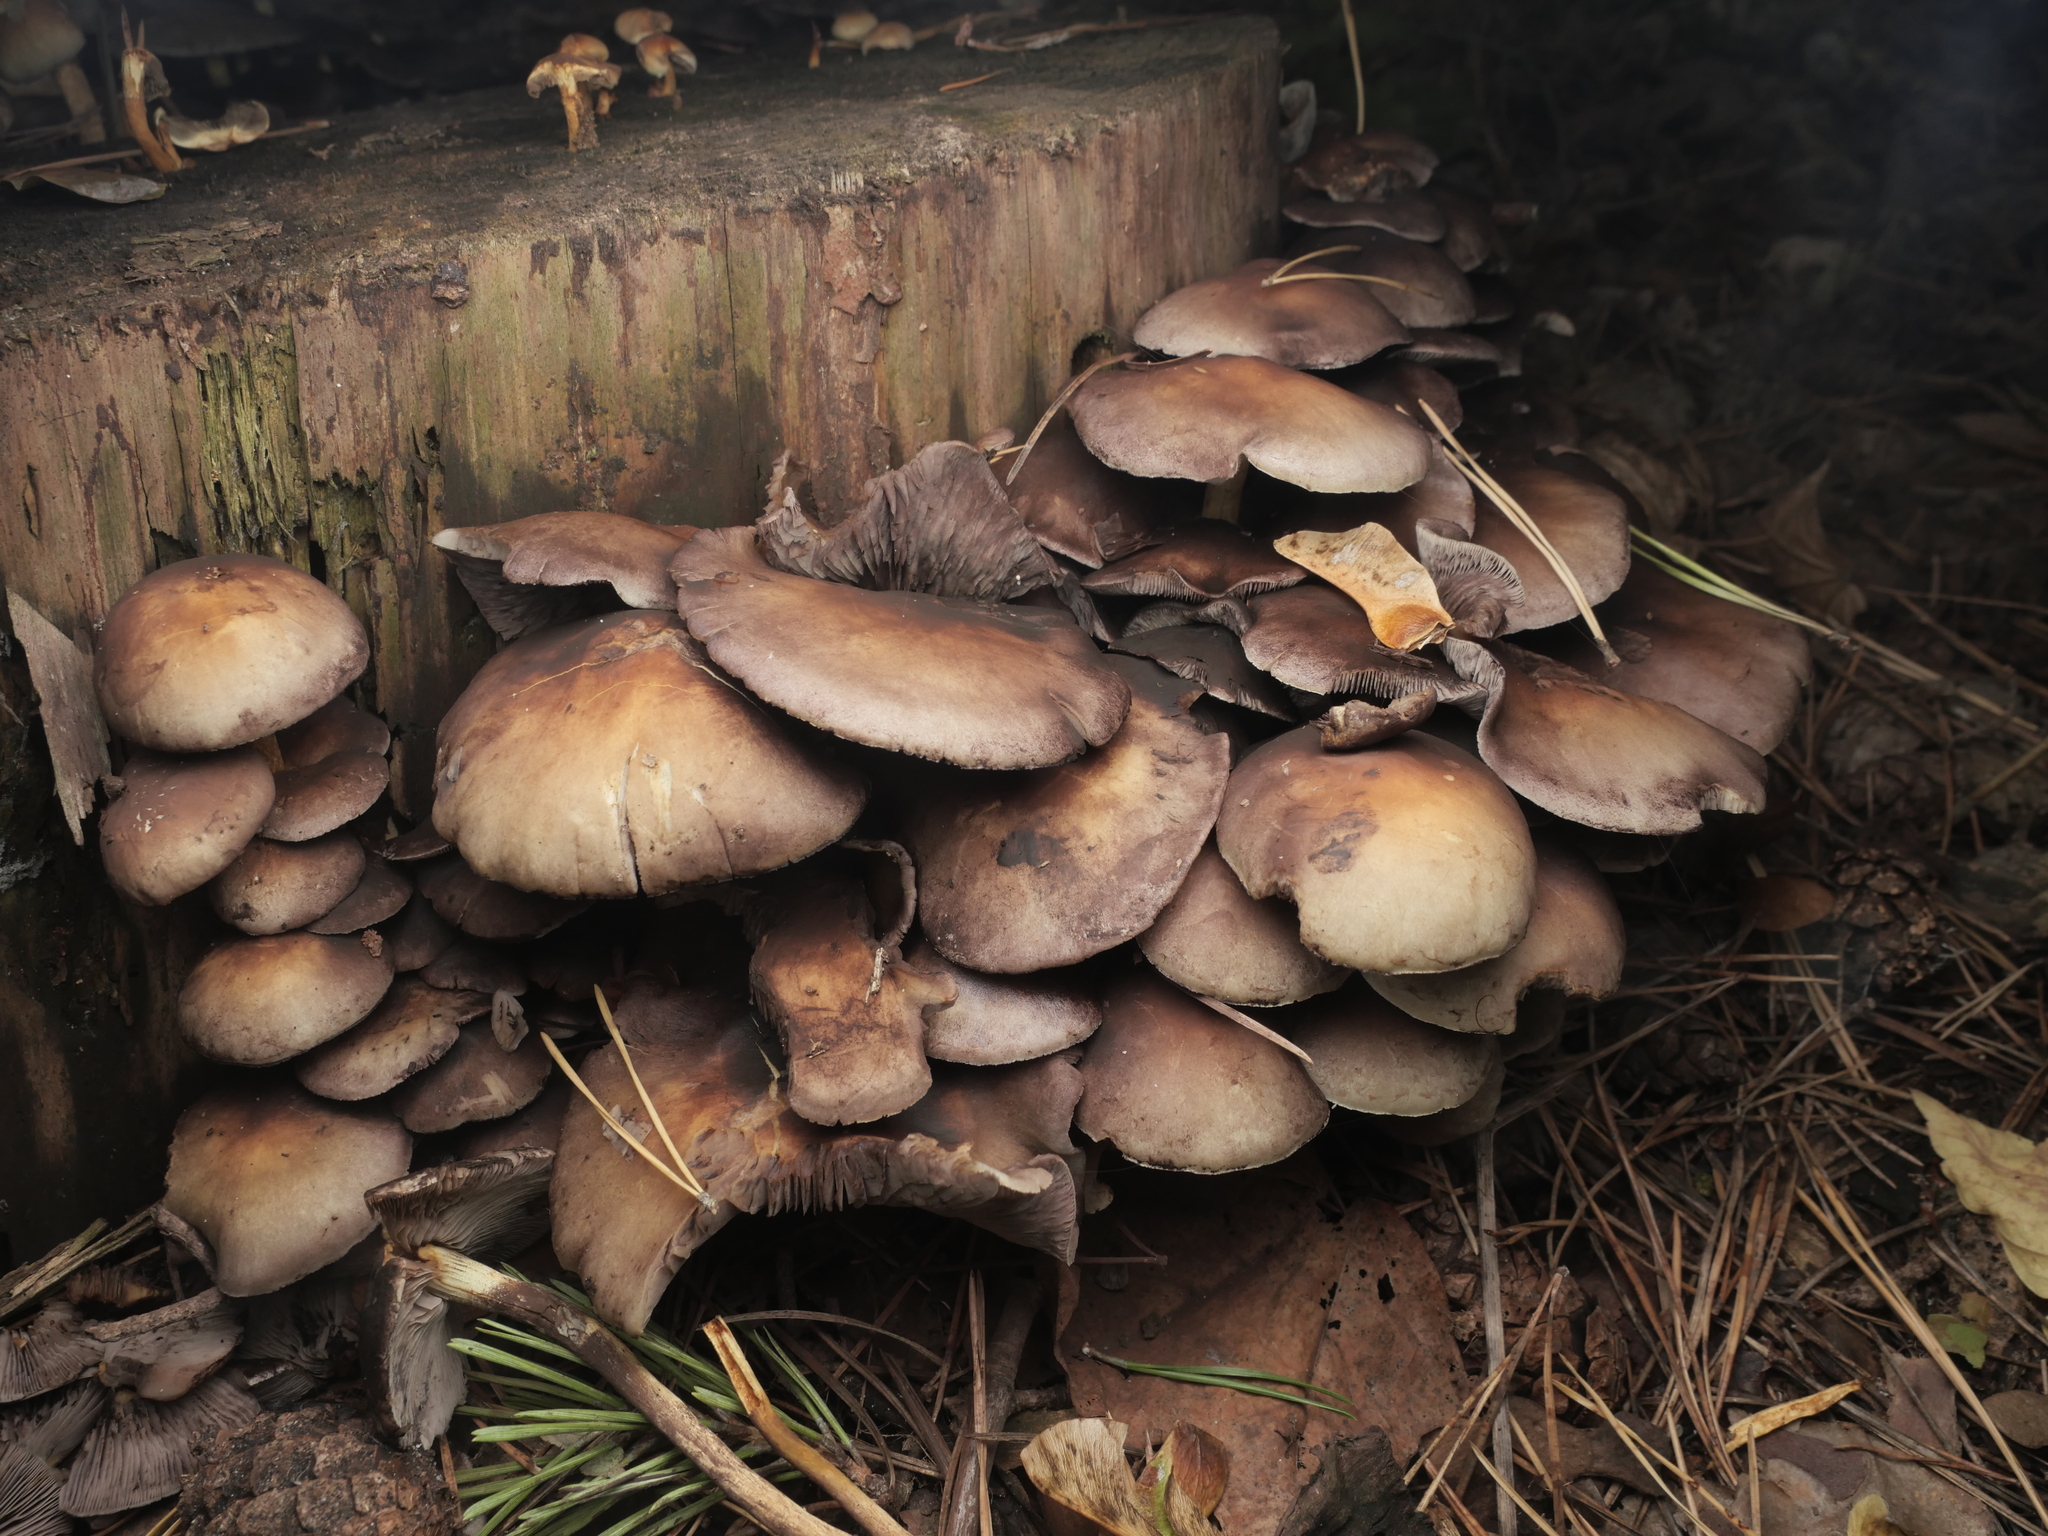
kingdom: Fungi
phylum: Basidiomycota
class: Agaricomycetes
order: Agaricales
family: Strophariaceae
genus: Hypholoma
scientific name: Hypholoma fasciculare
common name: Sulphur tuft
